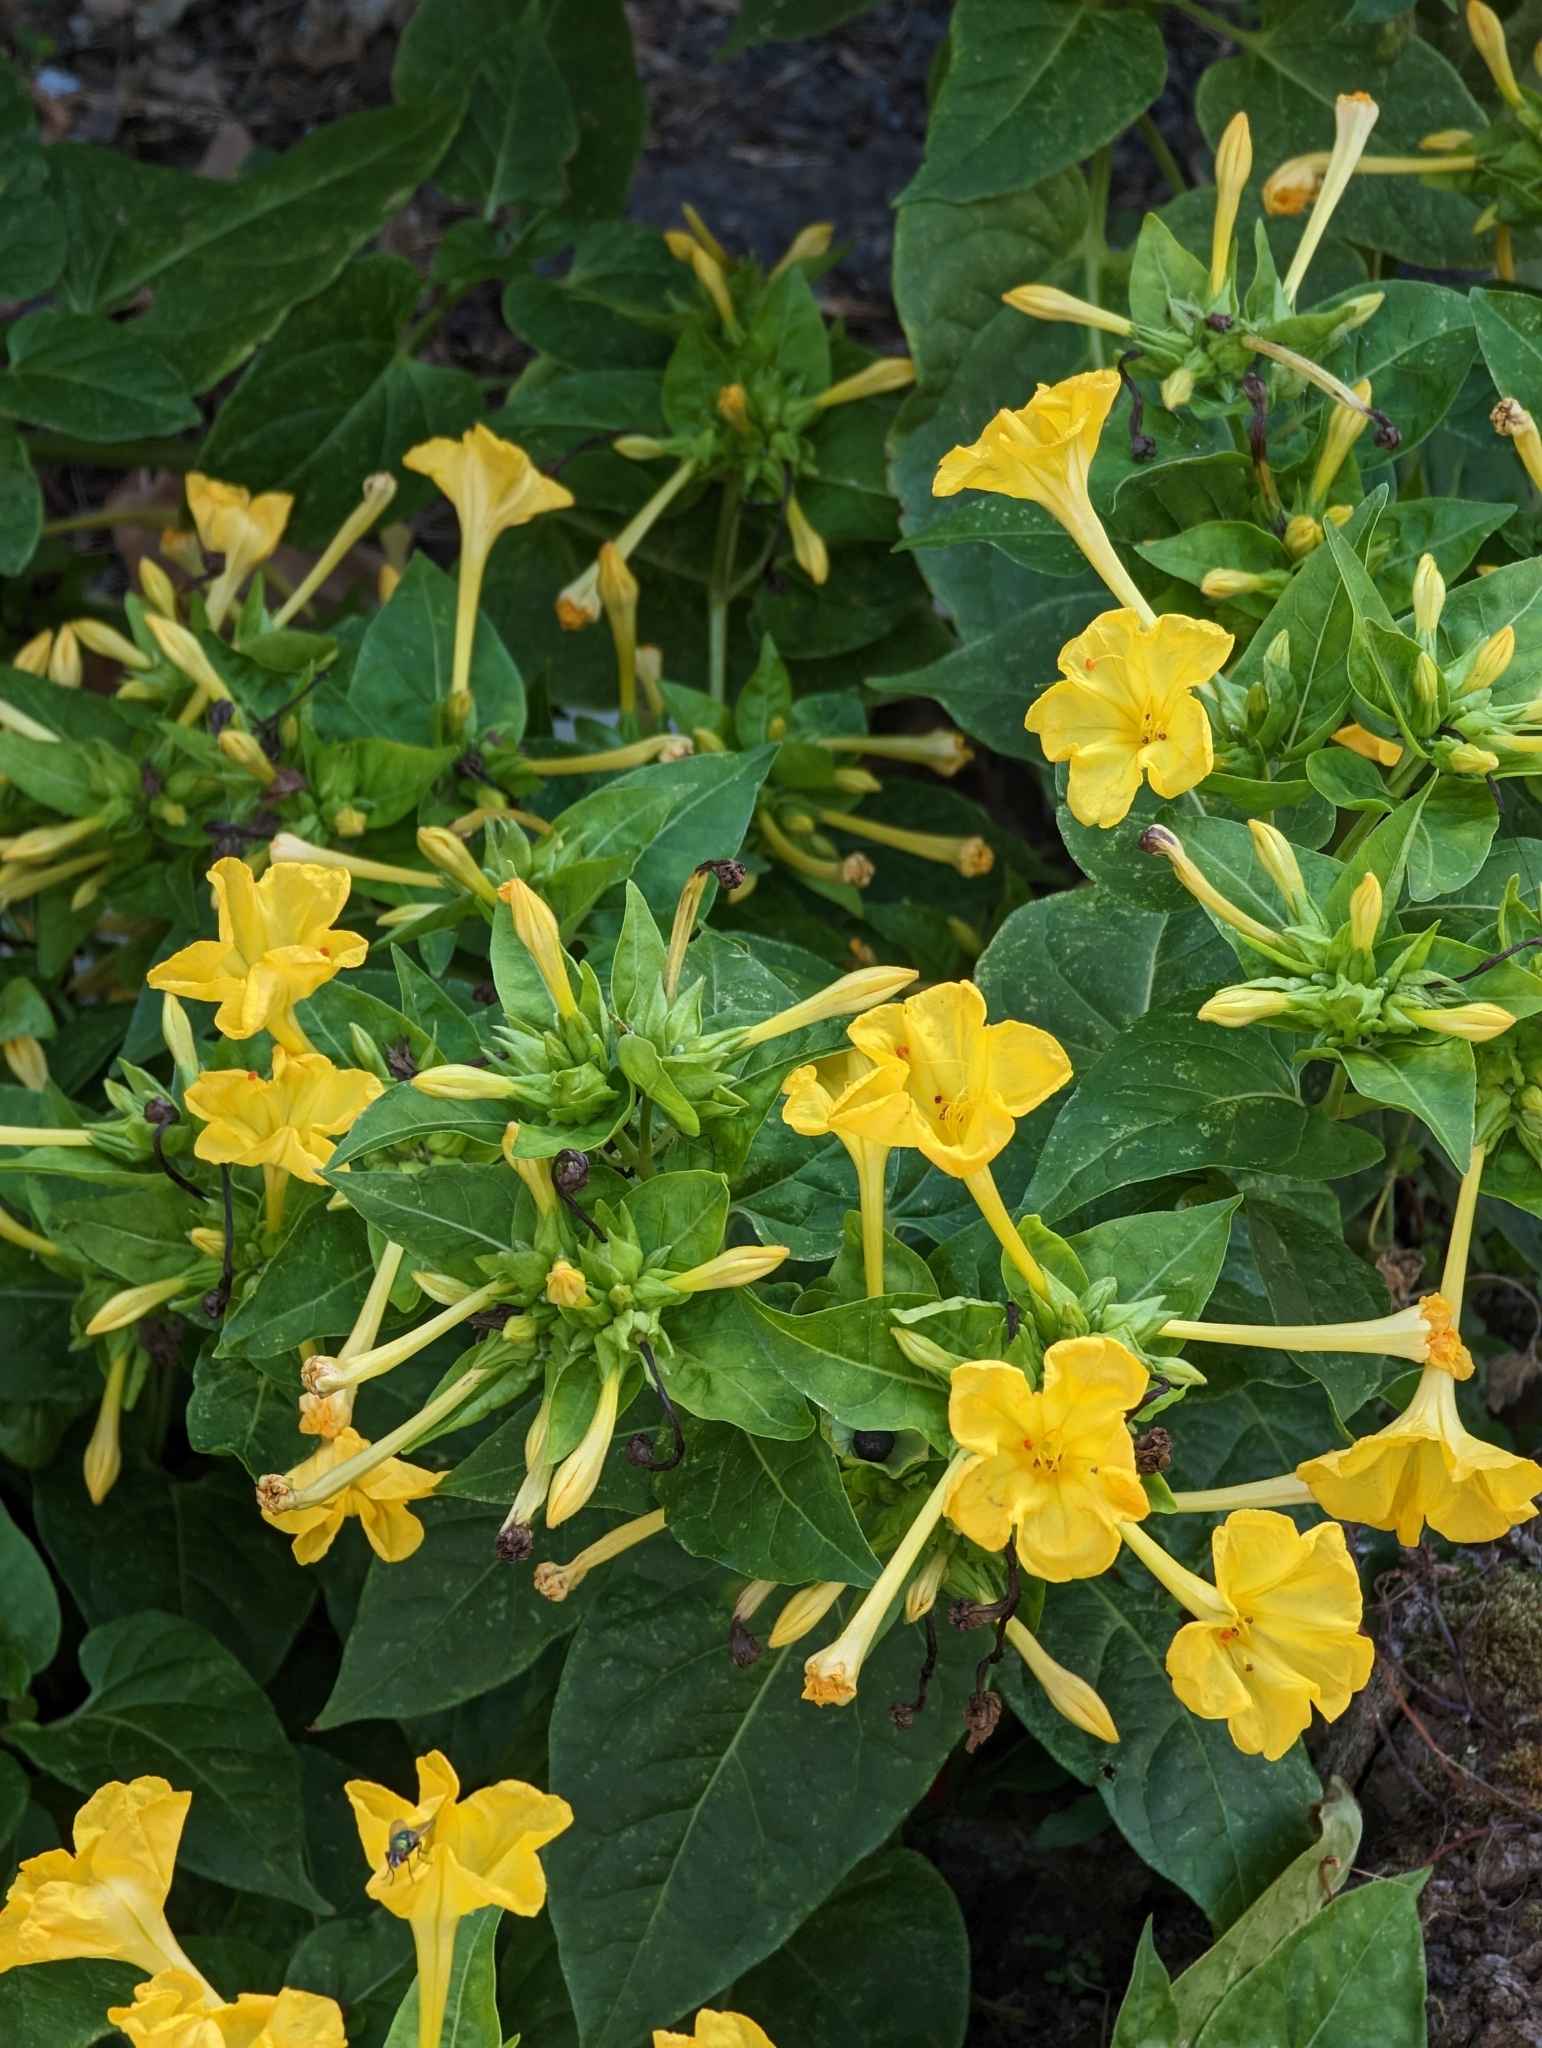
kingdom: Plantae
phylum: Tracheophyta
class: Magnoliopsida
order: Caryophyllales
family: Nyctaginaceae
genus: Mirabilis
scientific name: Mirabilis jalapa
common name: Marvel-of-peru
